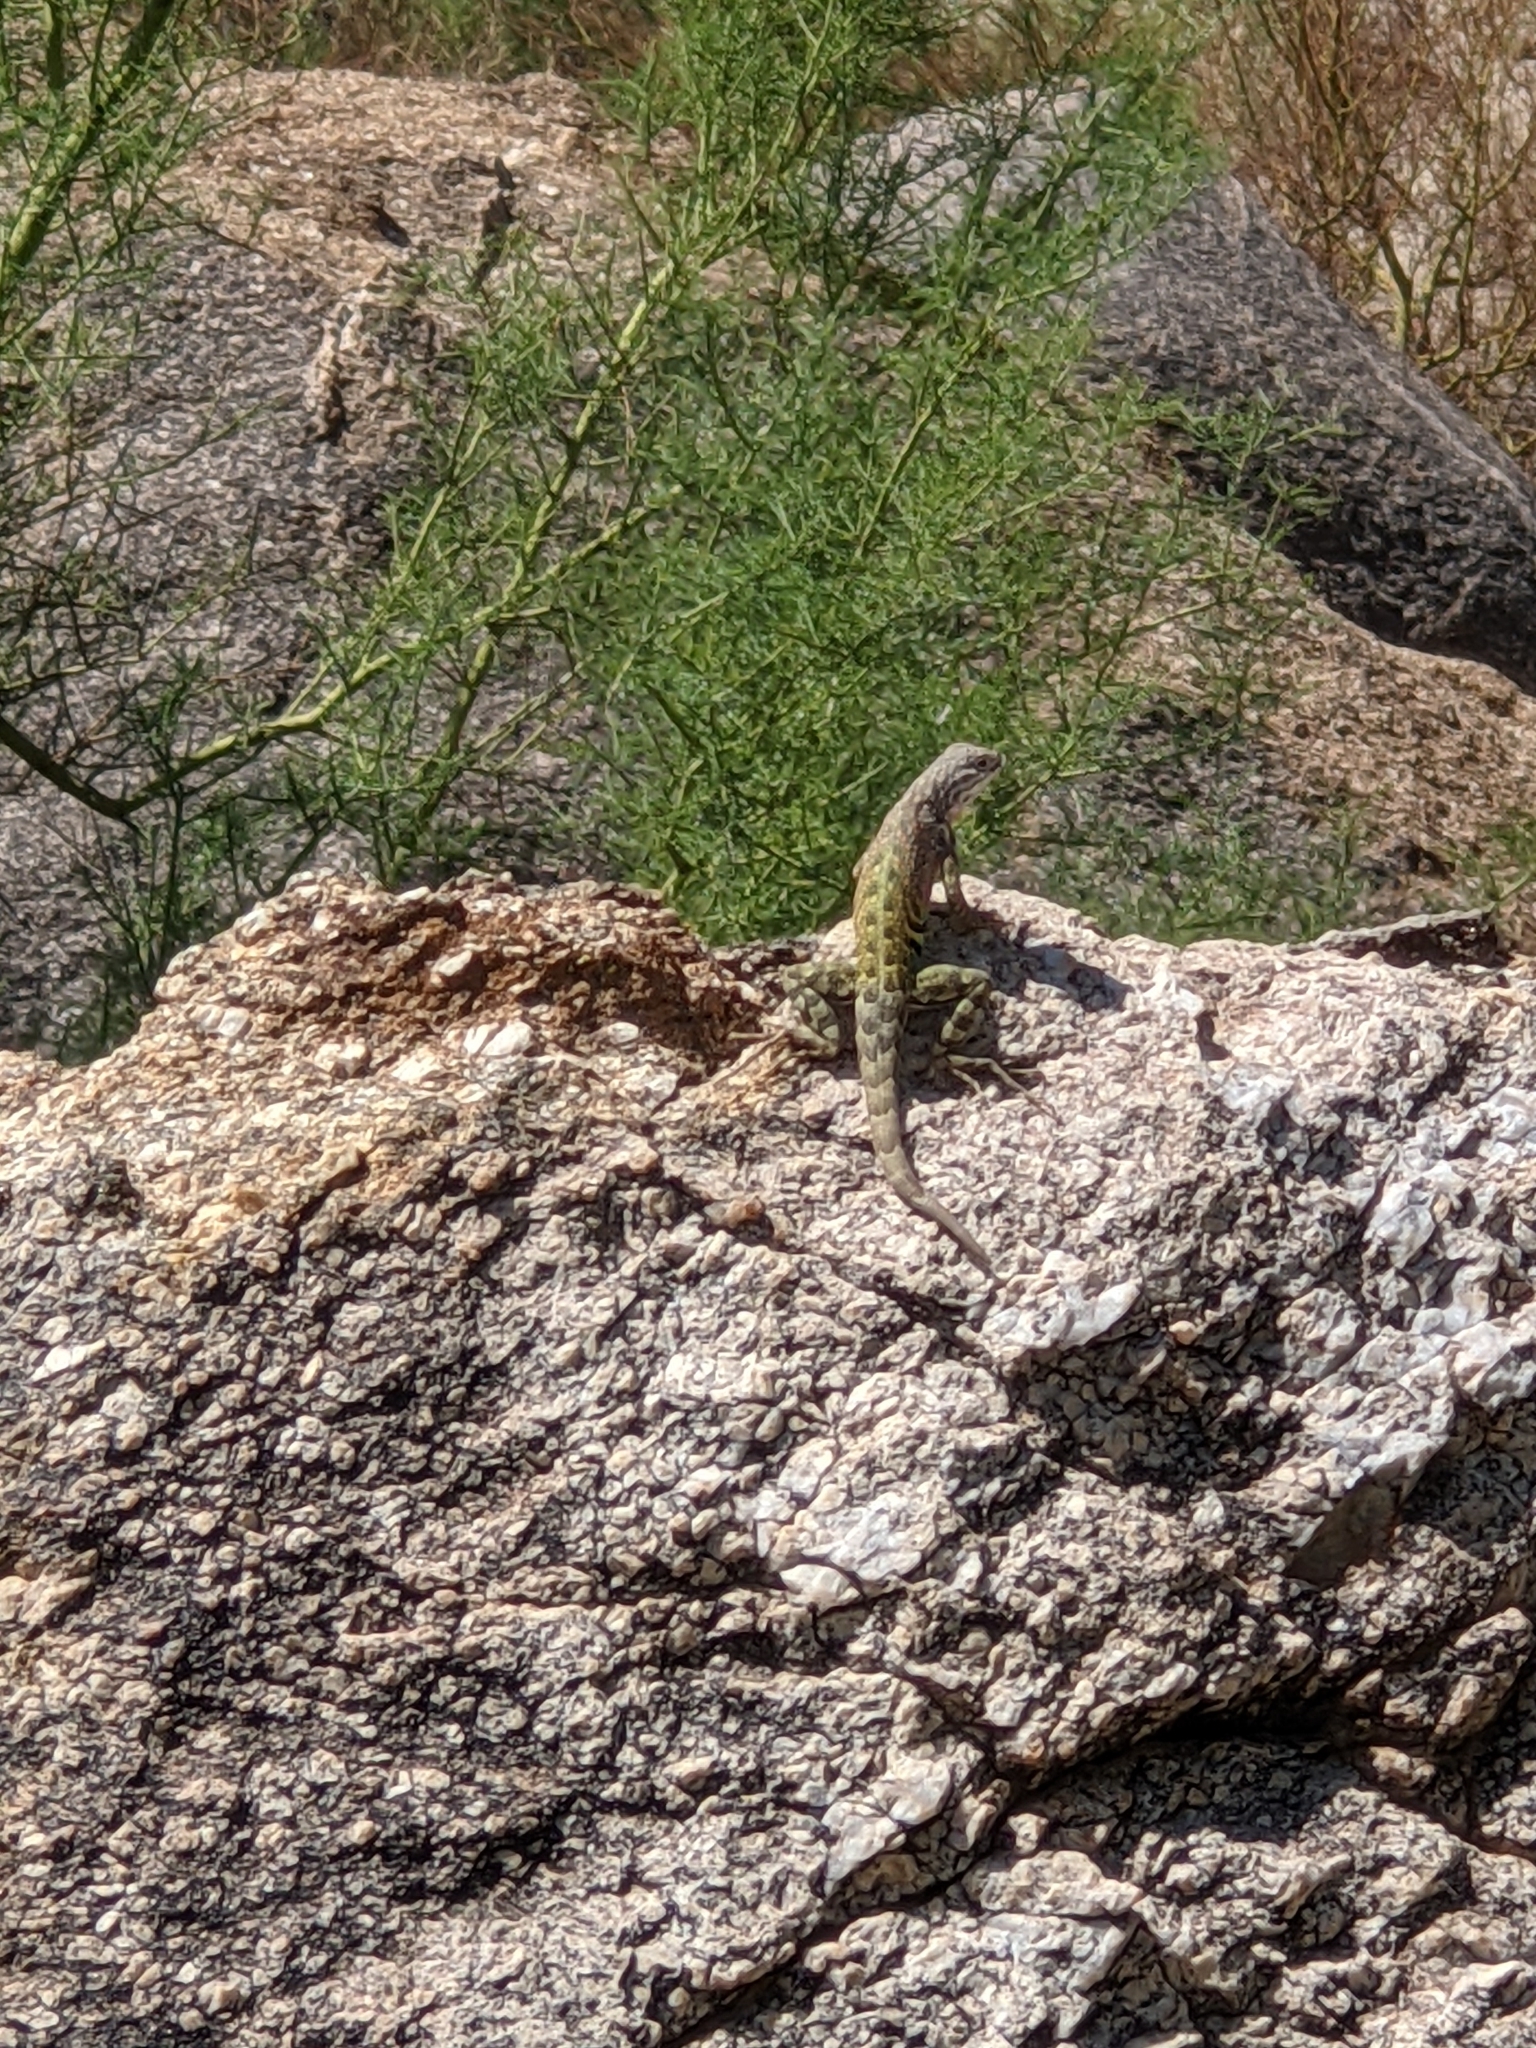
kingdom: Animalia
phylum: Chordata
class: Squamata
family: Phrynosomatidae
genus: Cophosaurus
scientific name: Cophosaurus texanus
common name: Greater earless lizard
